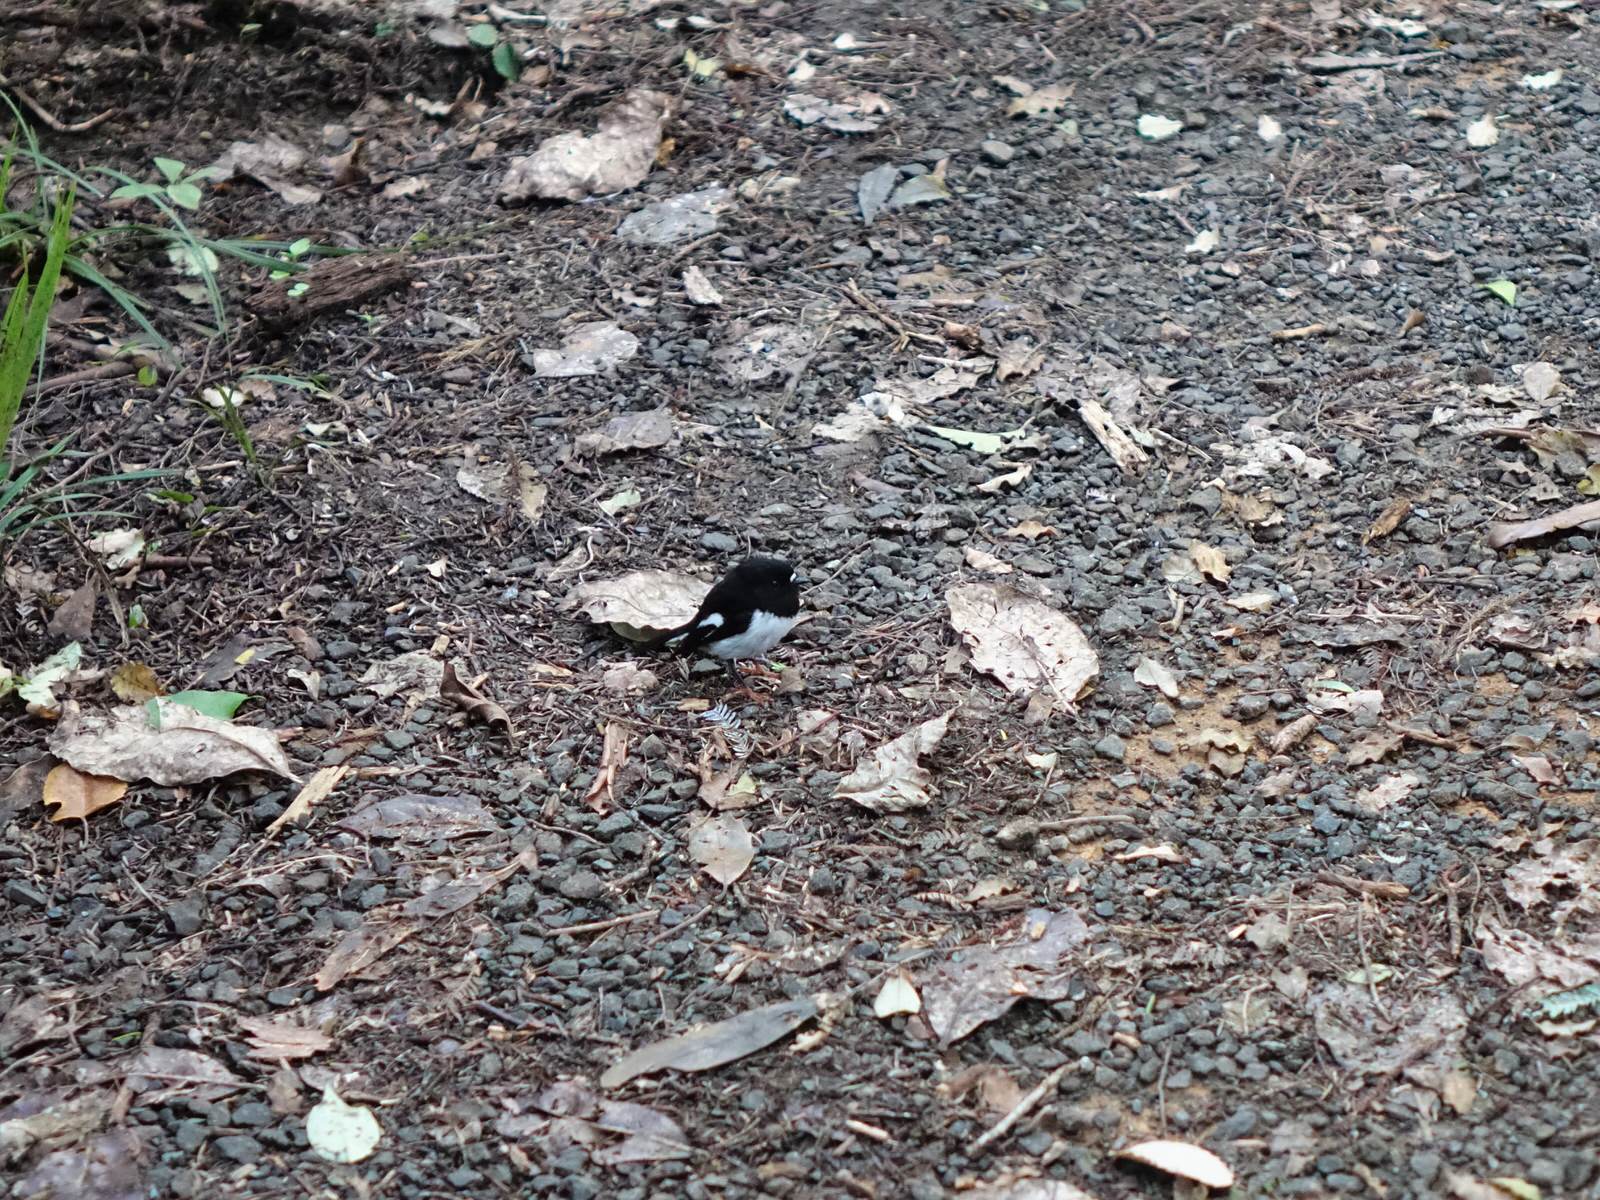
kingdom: Animalia
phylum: Chordata
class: Aves
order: Passeriformes
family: Petroicidae
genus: Petroica
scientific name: Petroica macrocephala
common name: Tomtit
